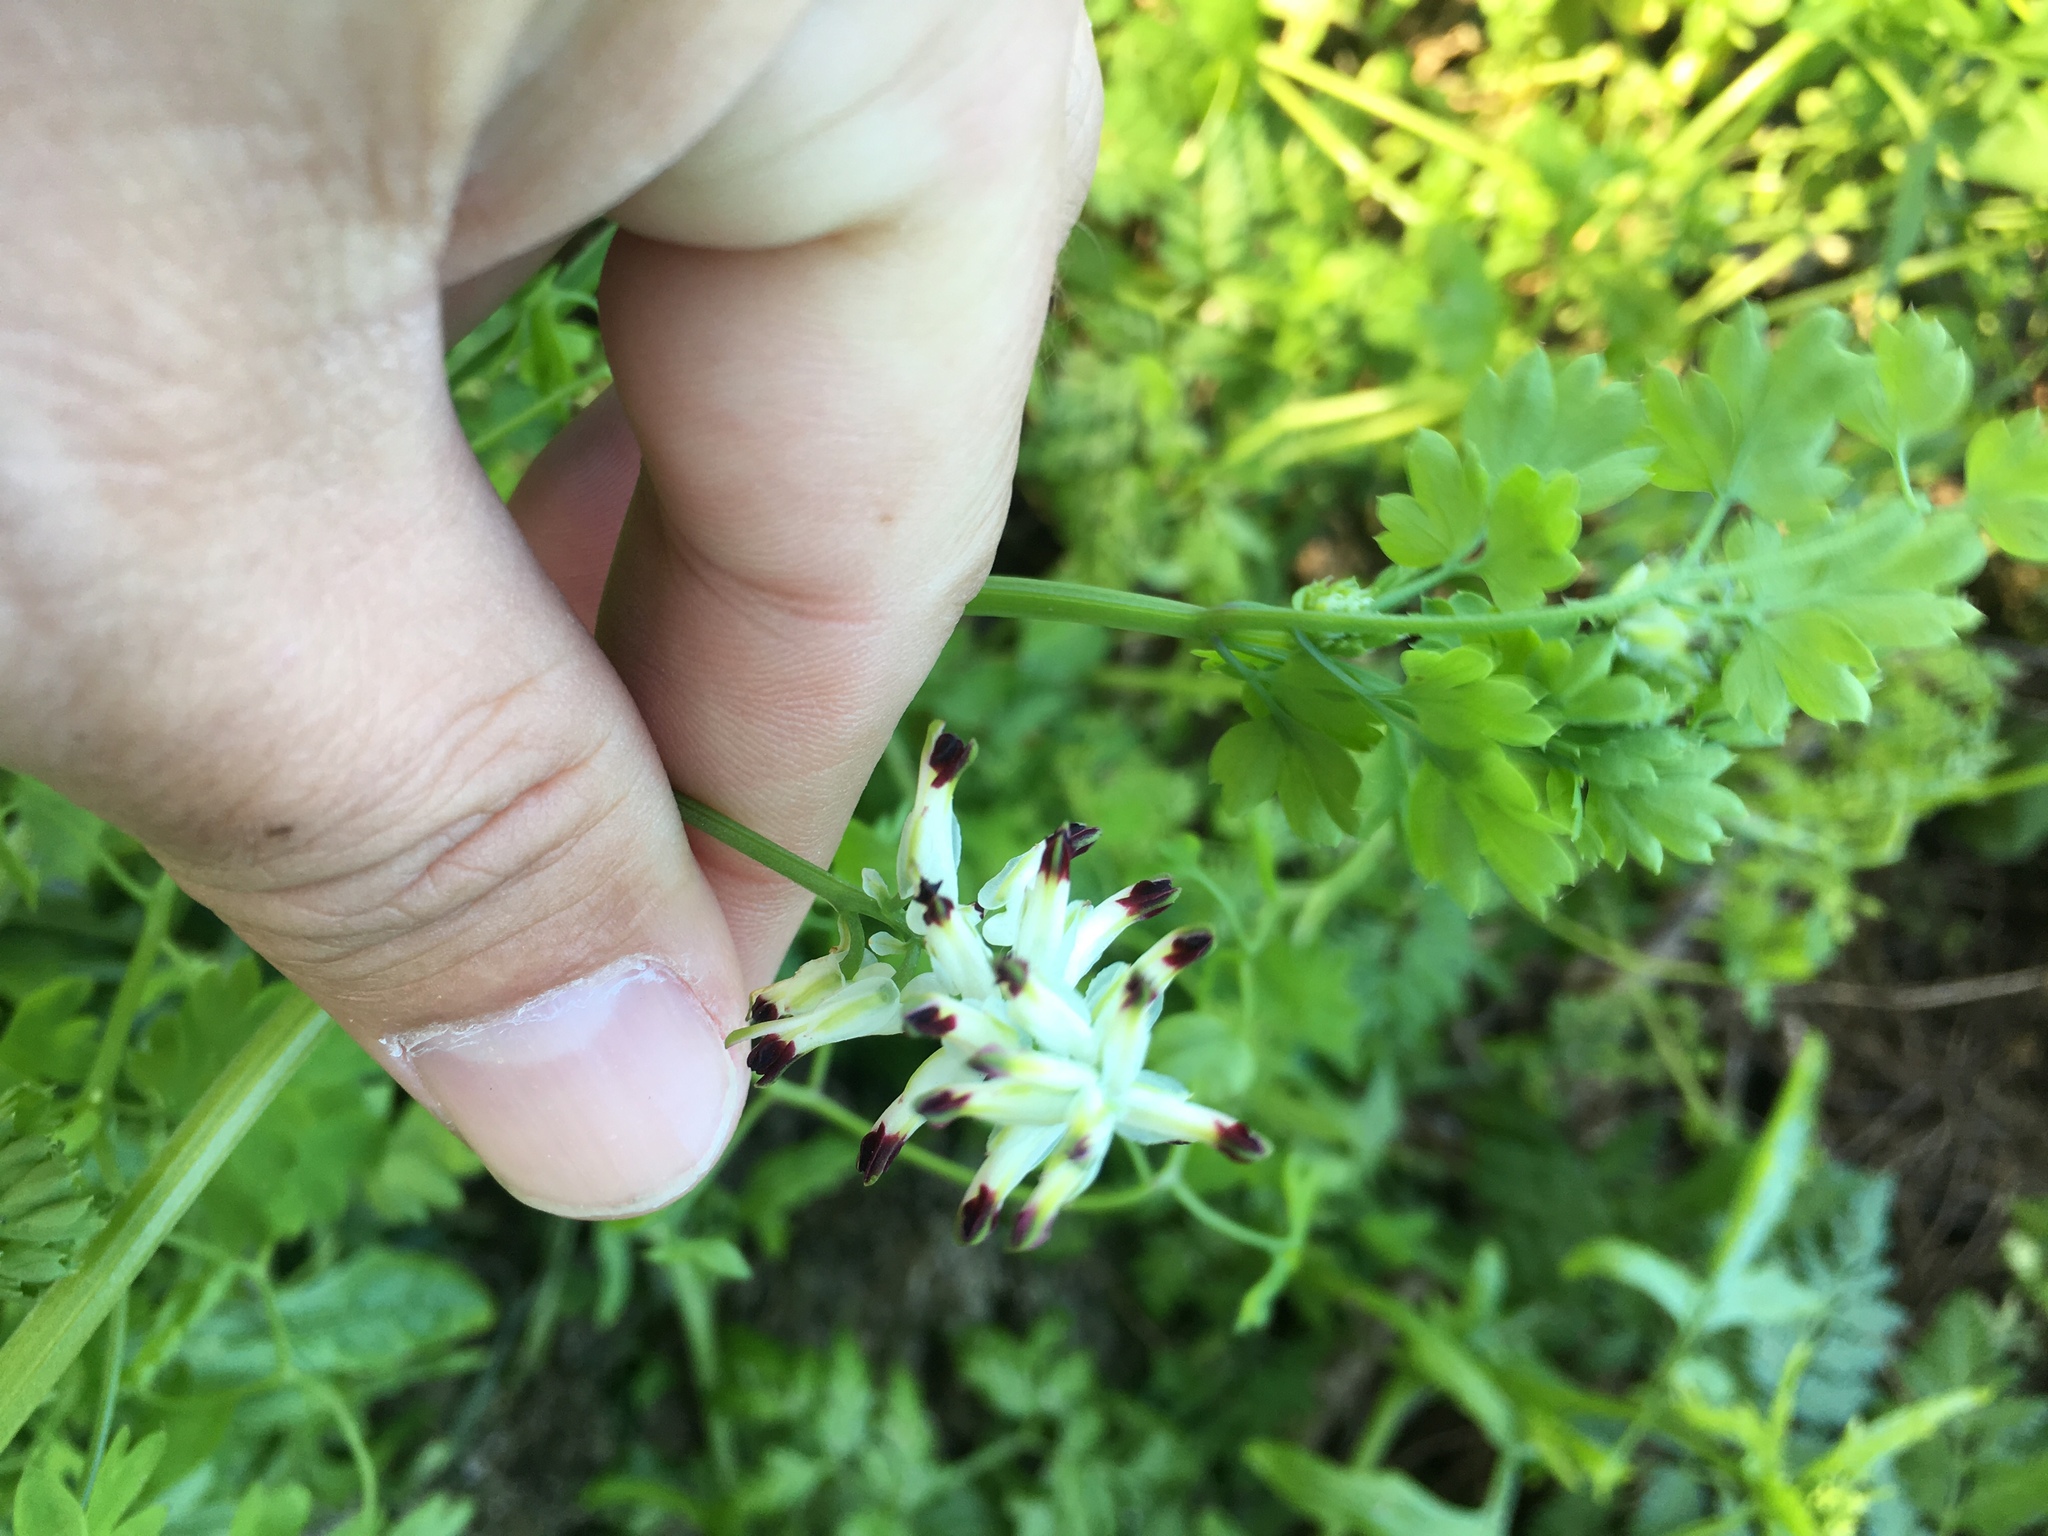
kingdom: Plantae
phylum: Tracheophyta
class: Magnoliopsida
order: Ranunculales
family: Papaveraceae
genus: Fumaria
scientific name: Fumaria capreolata
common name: White ramping-fumitory
